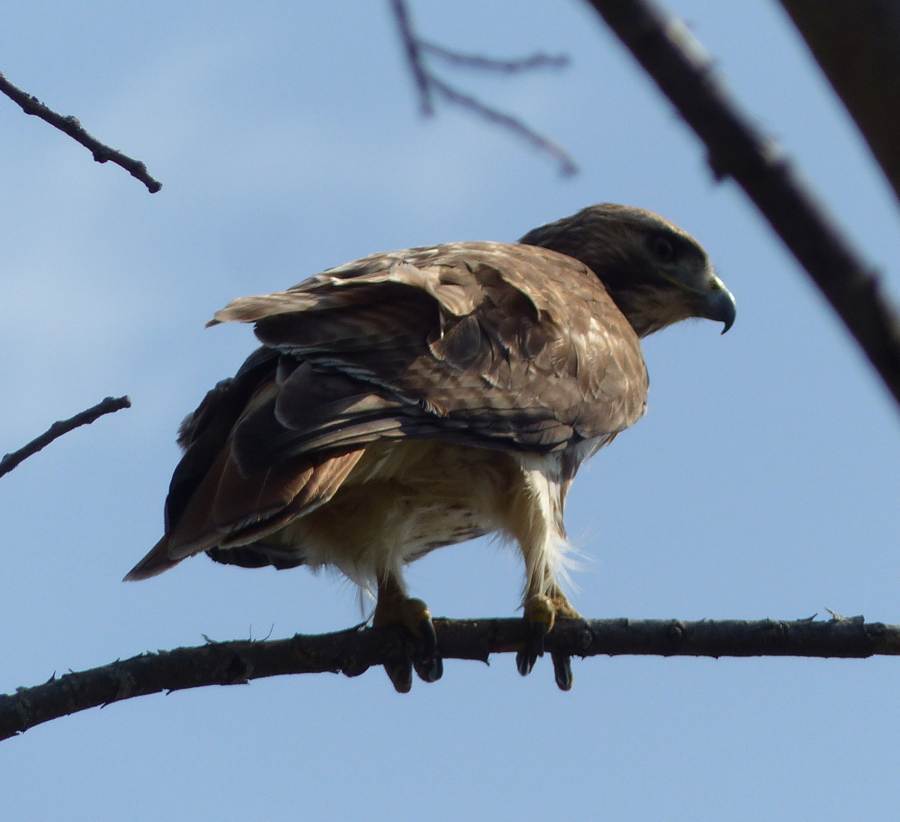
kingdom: Animalia
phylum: Chordata
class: Aves
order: Accipitriformes
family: Accipitridae
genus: Buteo
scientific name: Buteo jamaicensis
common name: Red-tailed hawk
